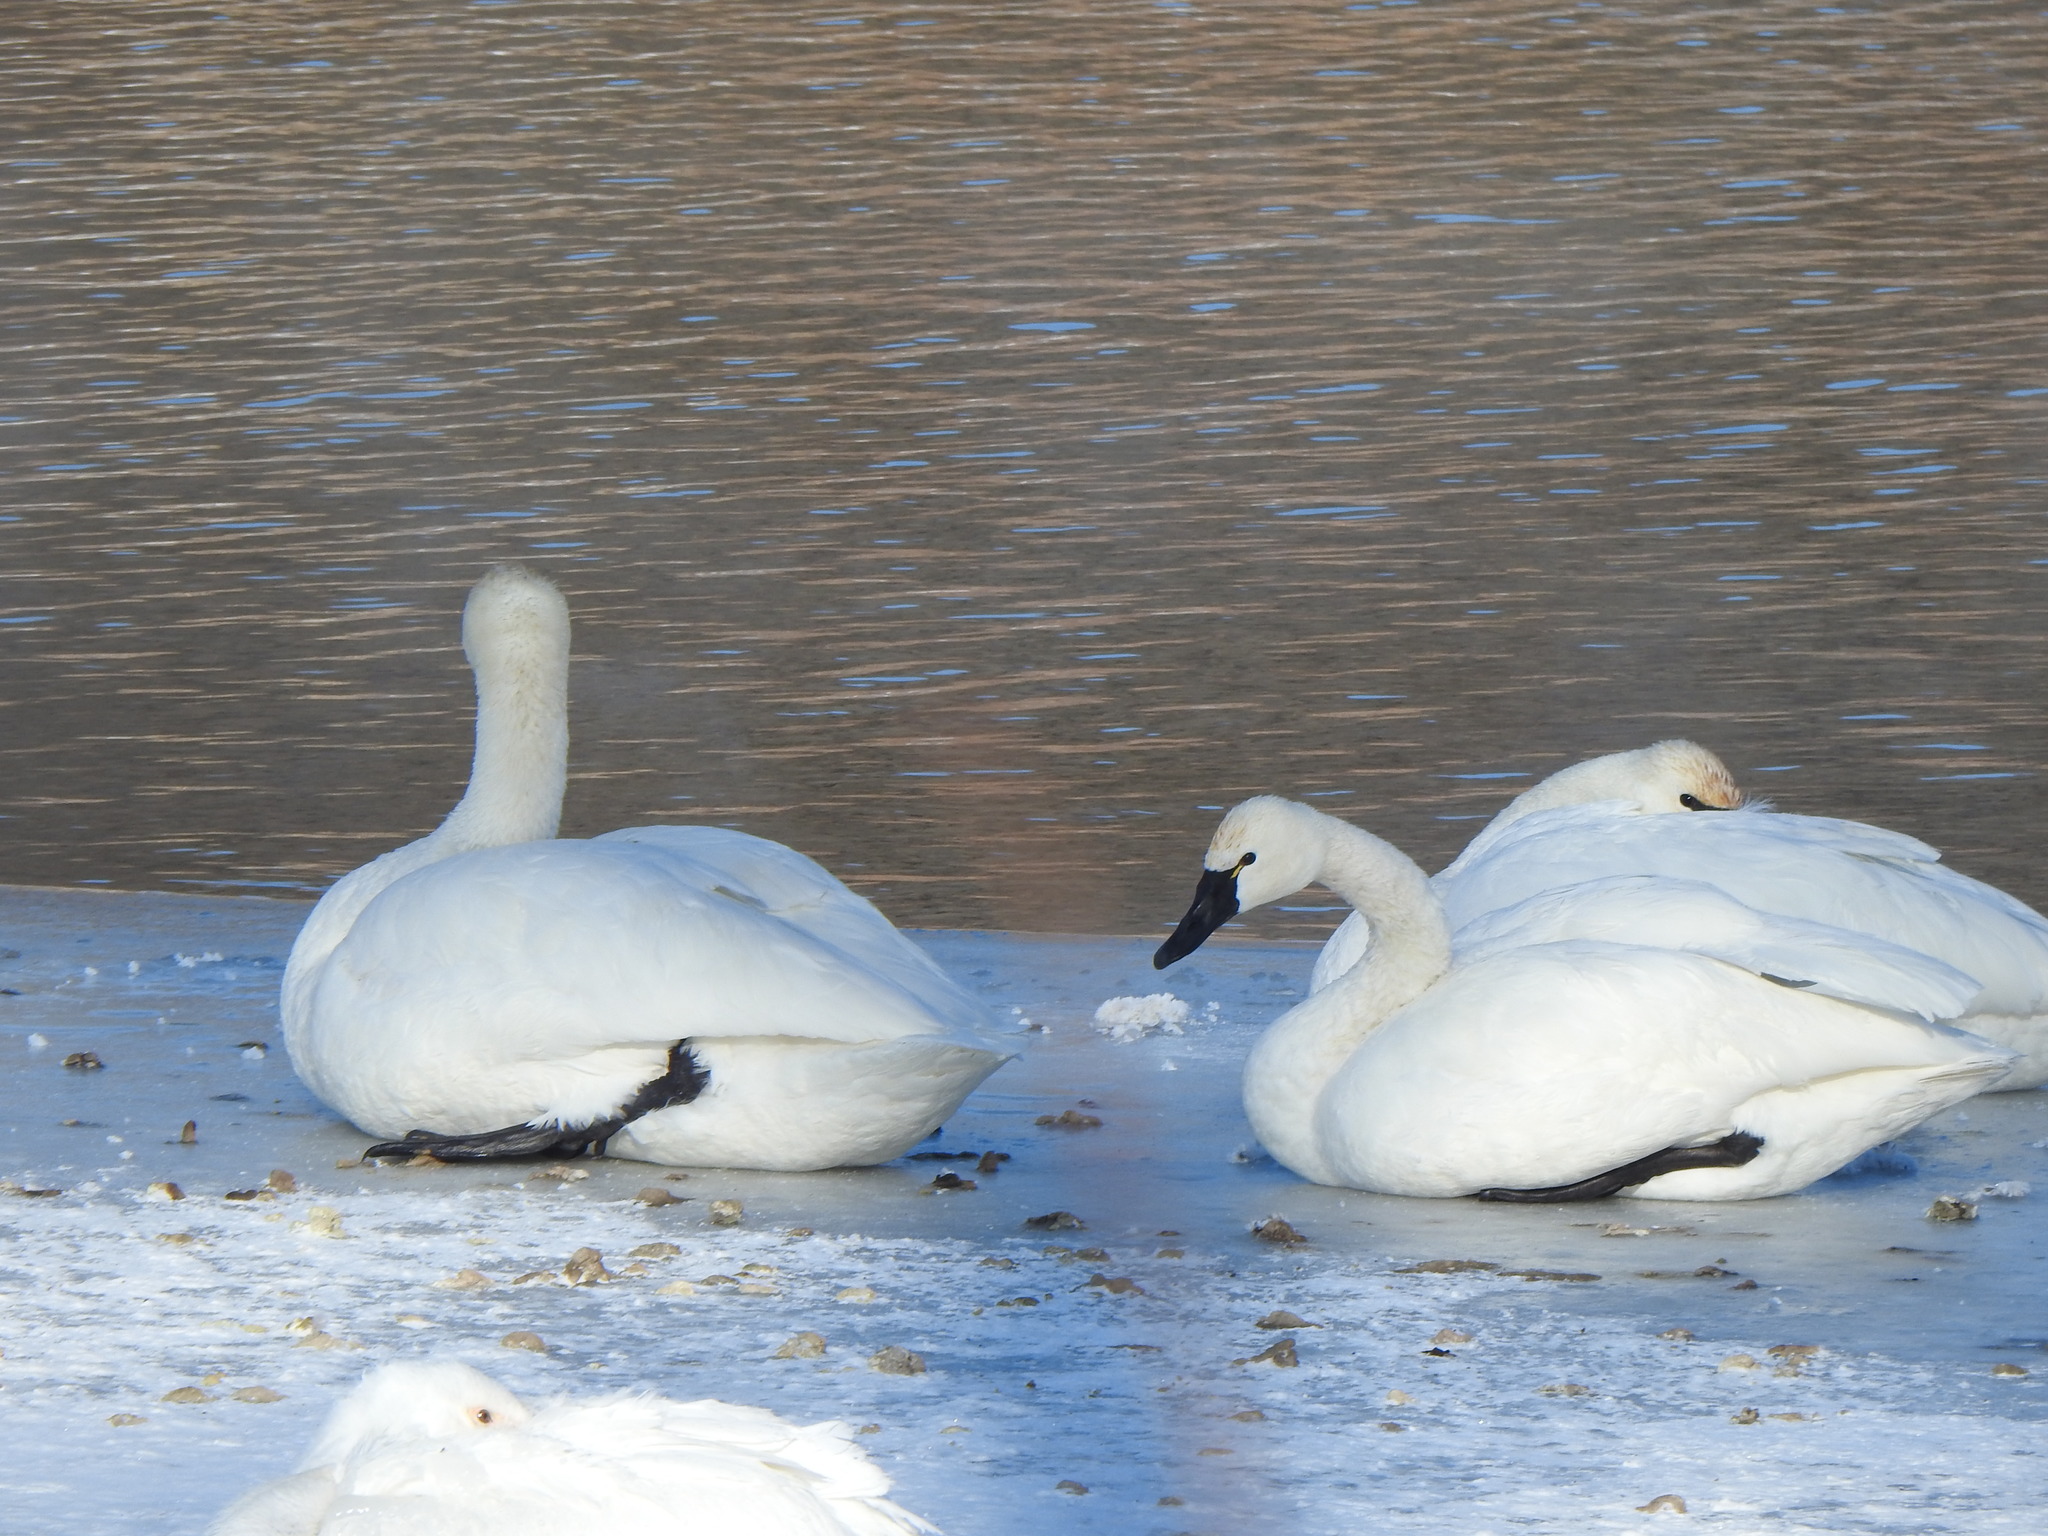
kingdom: Animalia
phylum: Chordata
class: Aves
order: Anseriformes
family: Anatidae
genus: Cygnus
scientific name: Cygnus columbianus
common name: Tundra swan
